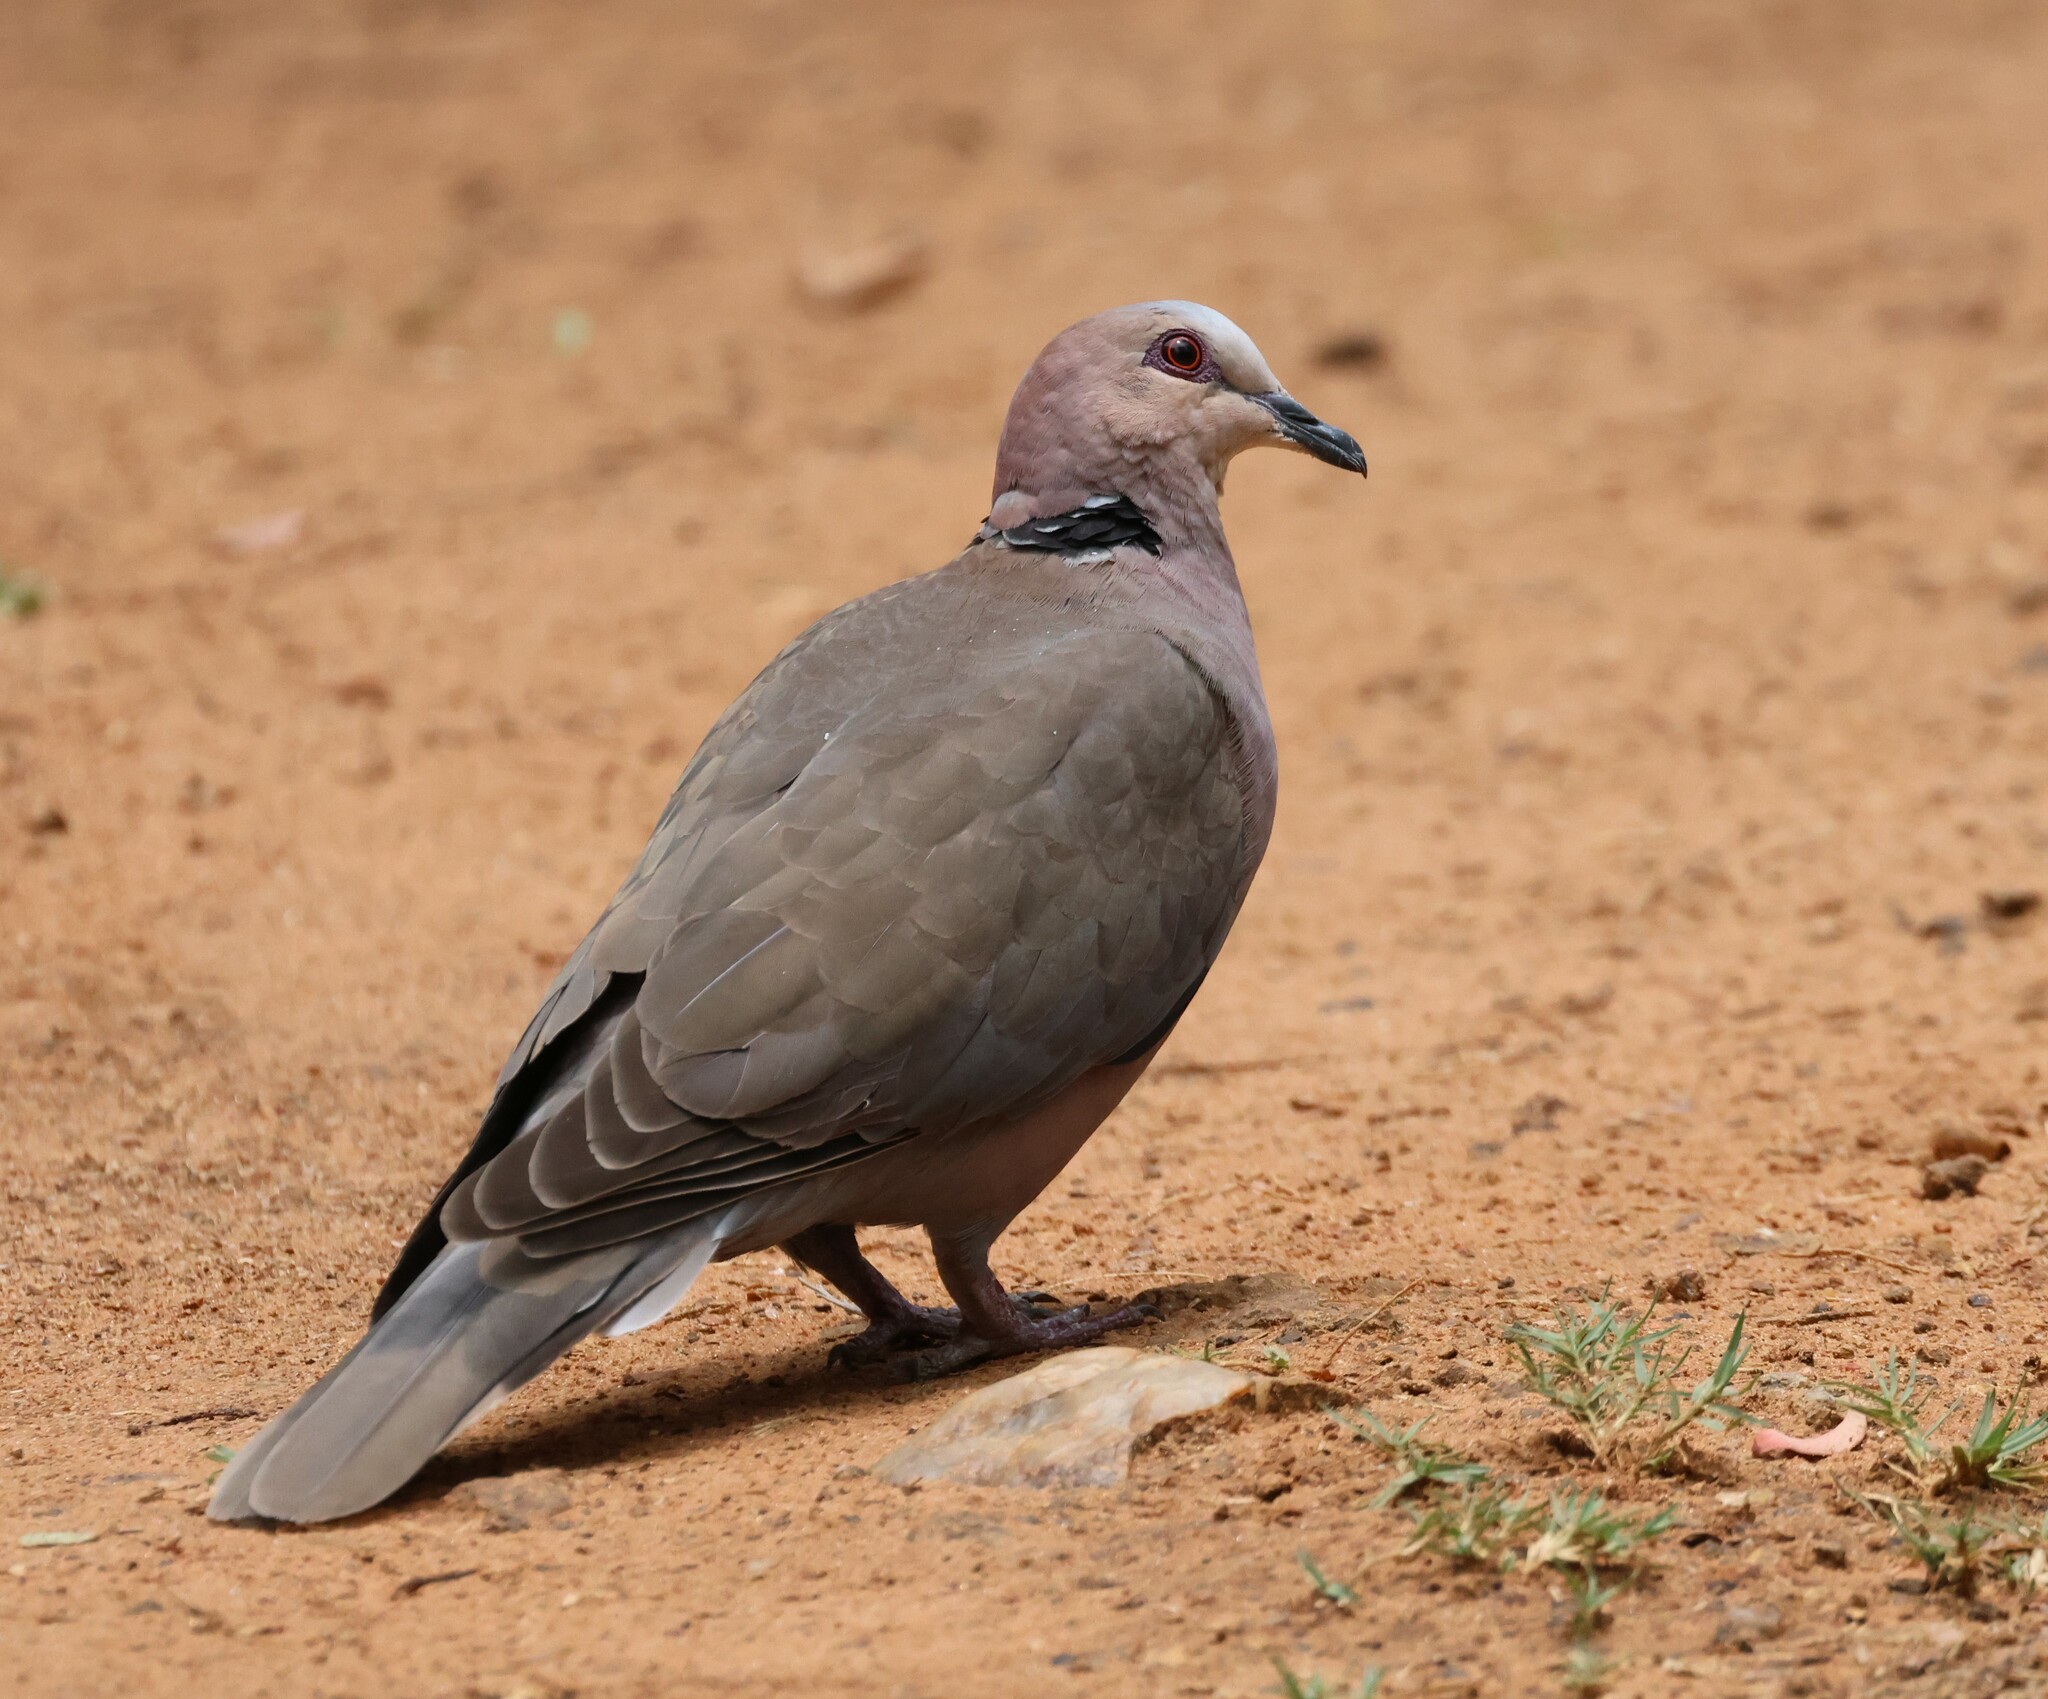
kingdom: Animalia
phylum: Chordata
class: Aves
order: Columbiformes
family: Columbidae
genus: Streptopelia
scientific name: Streptopelia semitorquata
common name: Red-eyed dove
